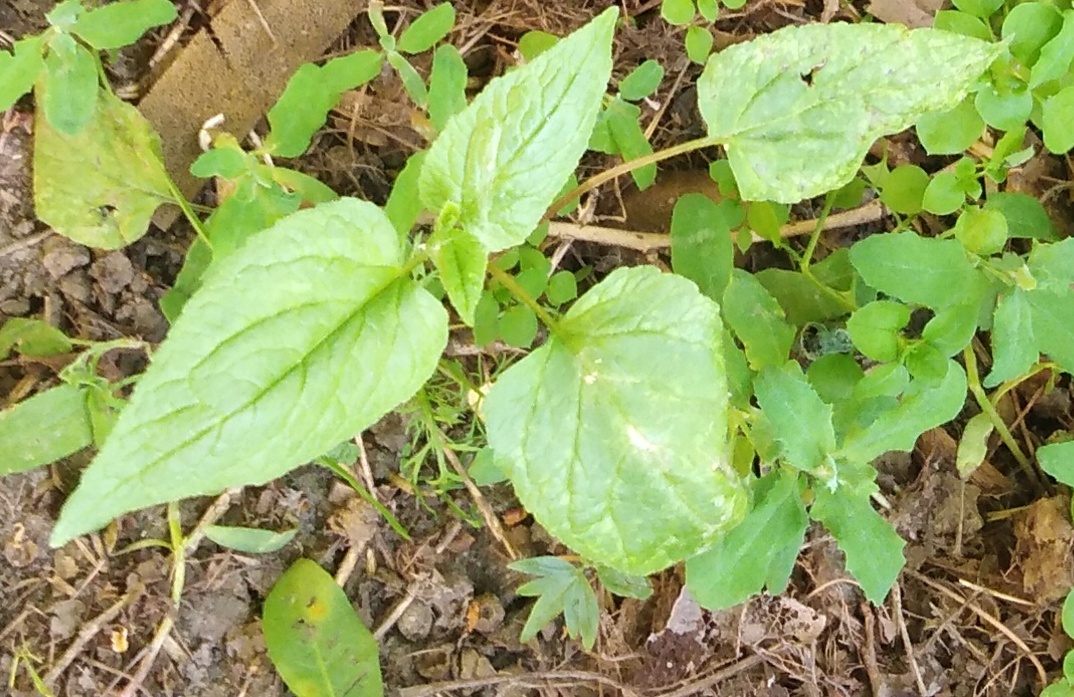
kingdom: Plantae
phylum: Tracheophyta
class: Magnoliopsida
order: Asterales
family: Campanulaceae
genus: Campanula
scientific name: Campanula rapunculoides
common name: Creeping bellflower
